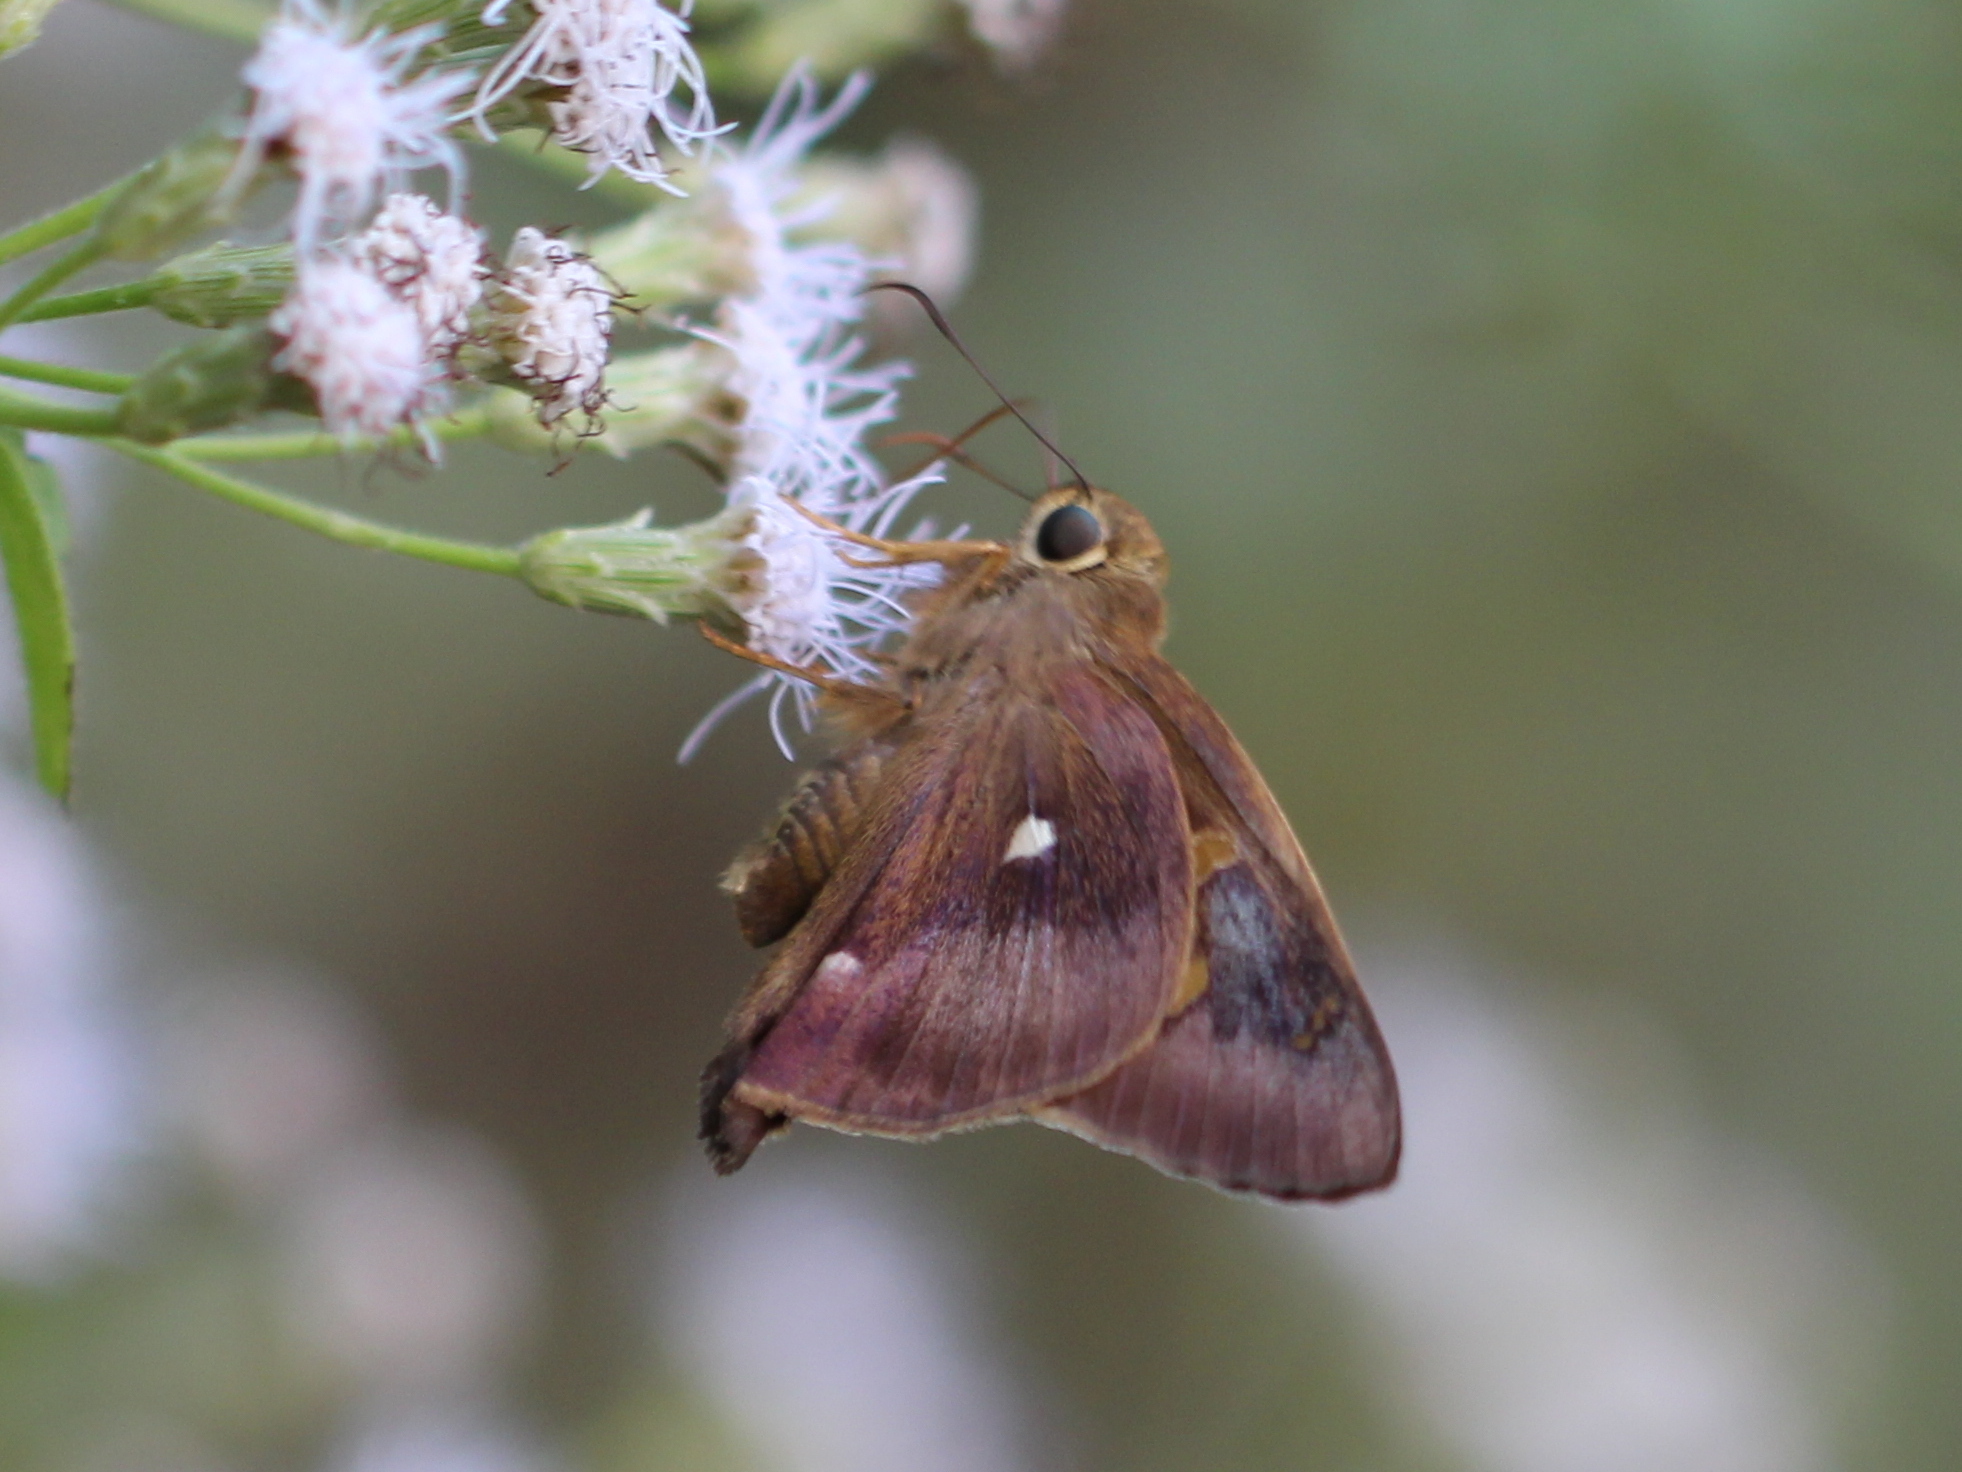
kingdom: Animalia
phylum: Arthropoda
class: Insecta
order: Lepidoptera
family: Hesperiidae
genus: Hasora
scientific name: Hasora badra
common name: Common awl
